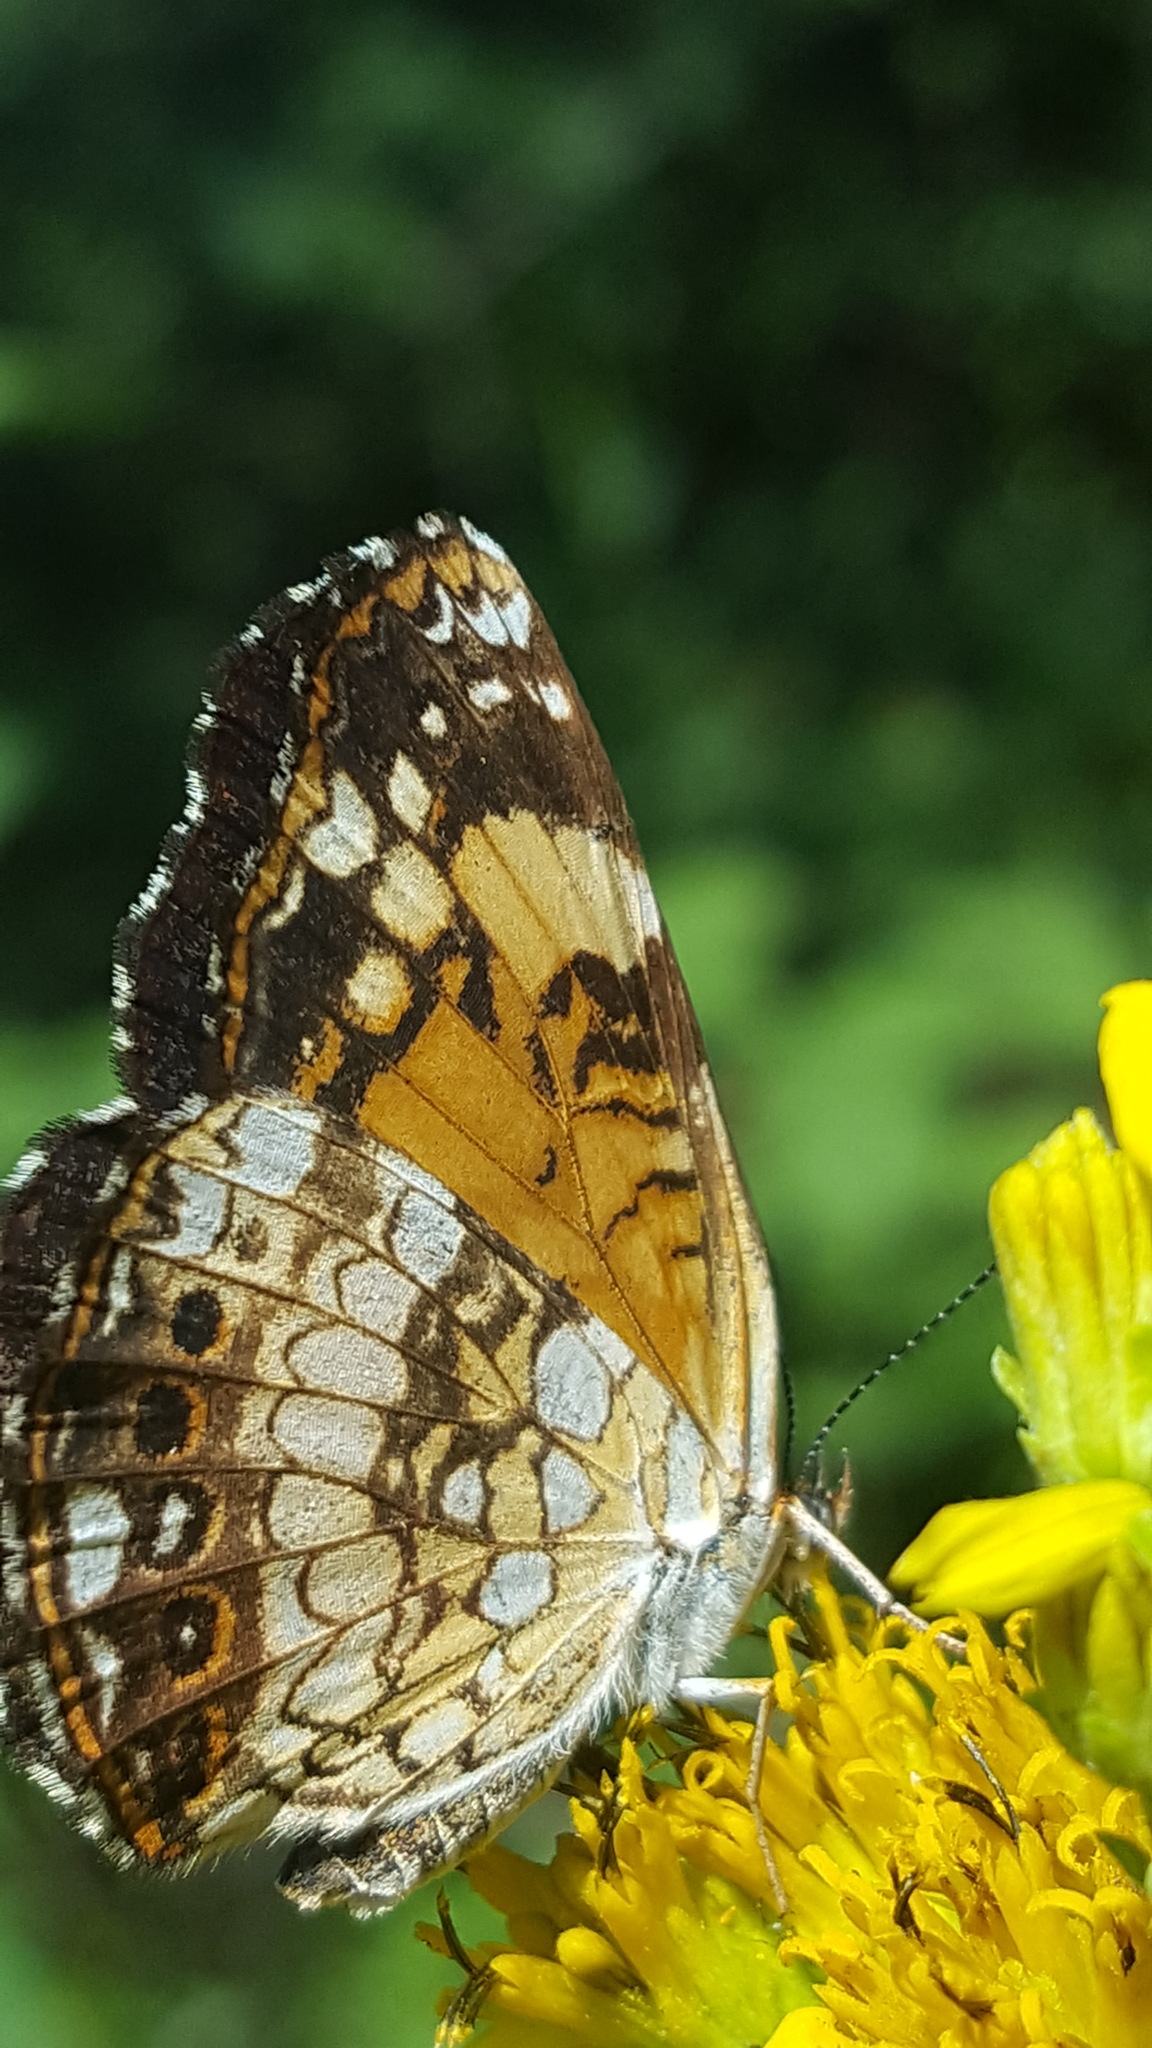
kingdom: Animalia
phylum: Arthropoda
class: Insecta
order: Lepidoptera
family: Nymphalidae
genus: Chlosyne
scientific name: Chlosyne nycteis
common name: Silvery checkerspot
